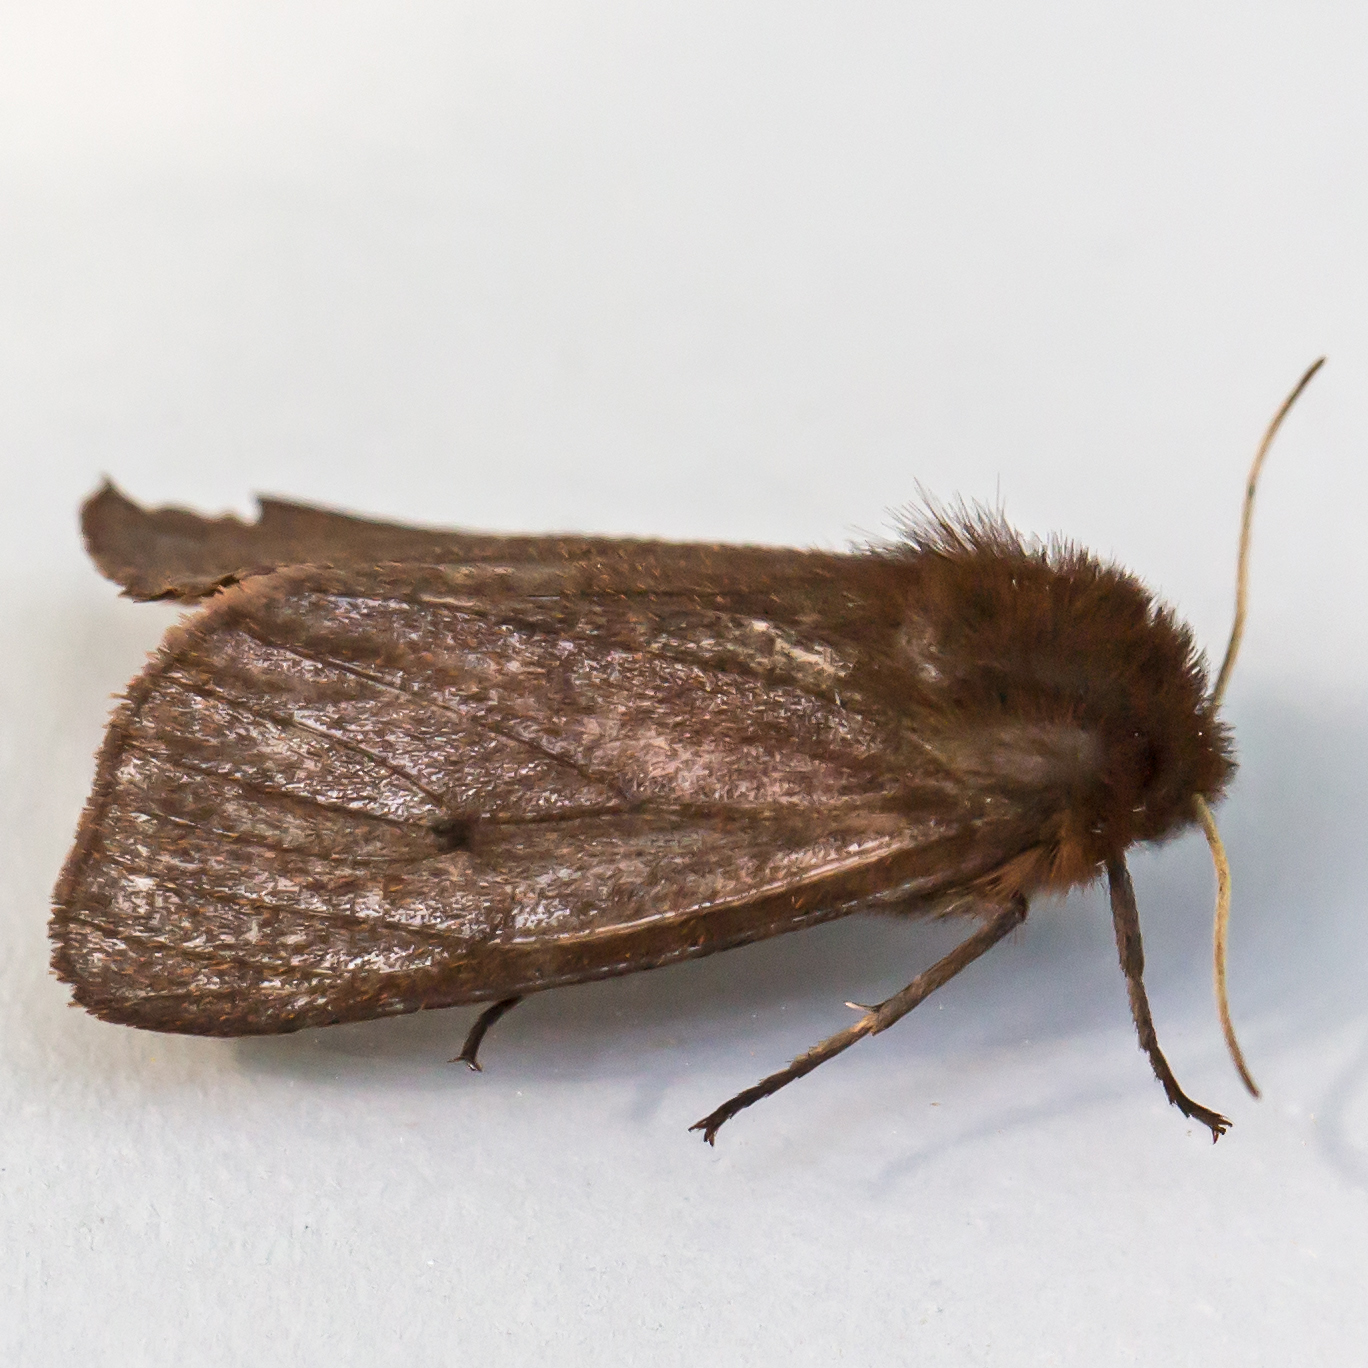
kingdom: Animalia
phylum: Arthropoda
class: Insecta
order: Lepidoptera
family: Erebidae
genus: Phragmatobia
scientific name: Phragmatobia fuliginosa
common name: Ruby tiger
